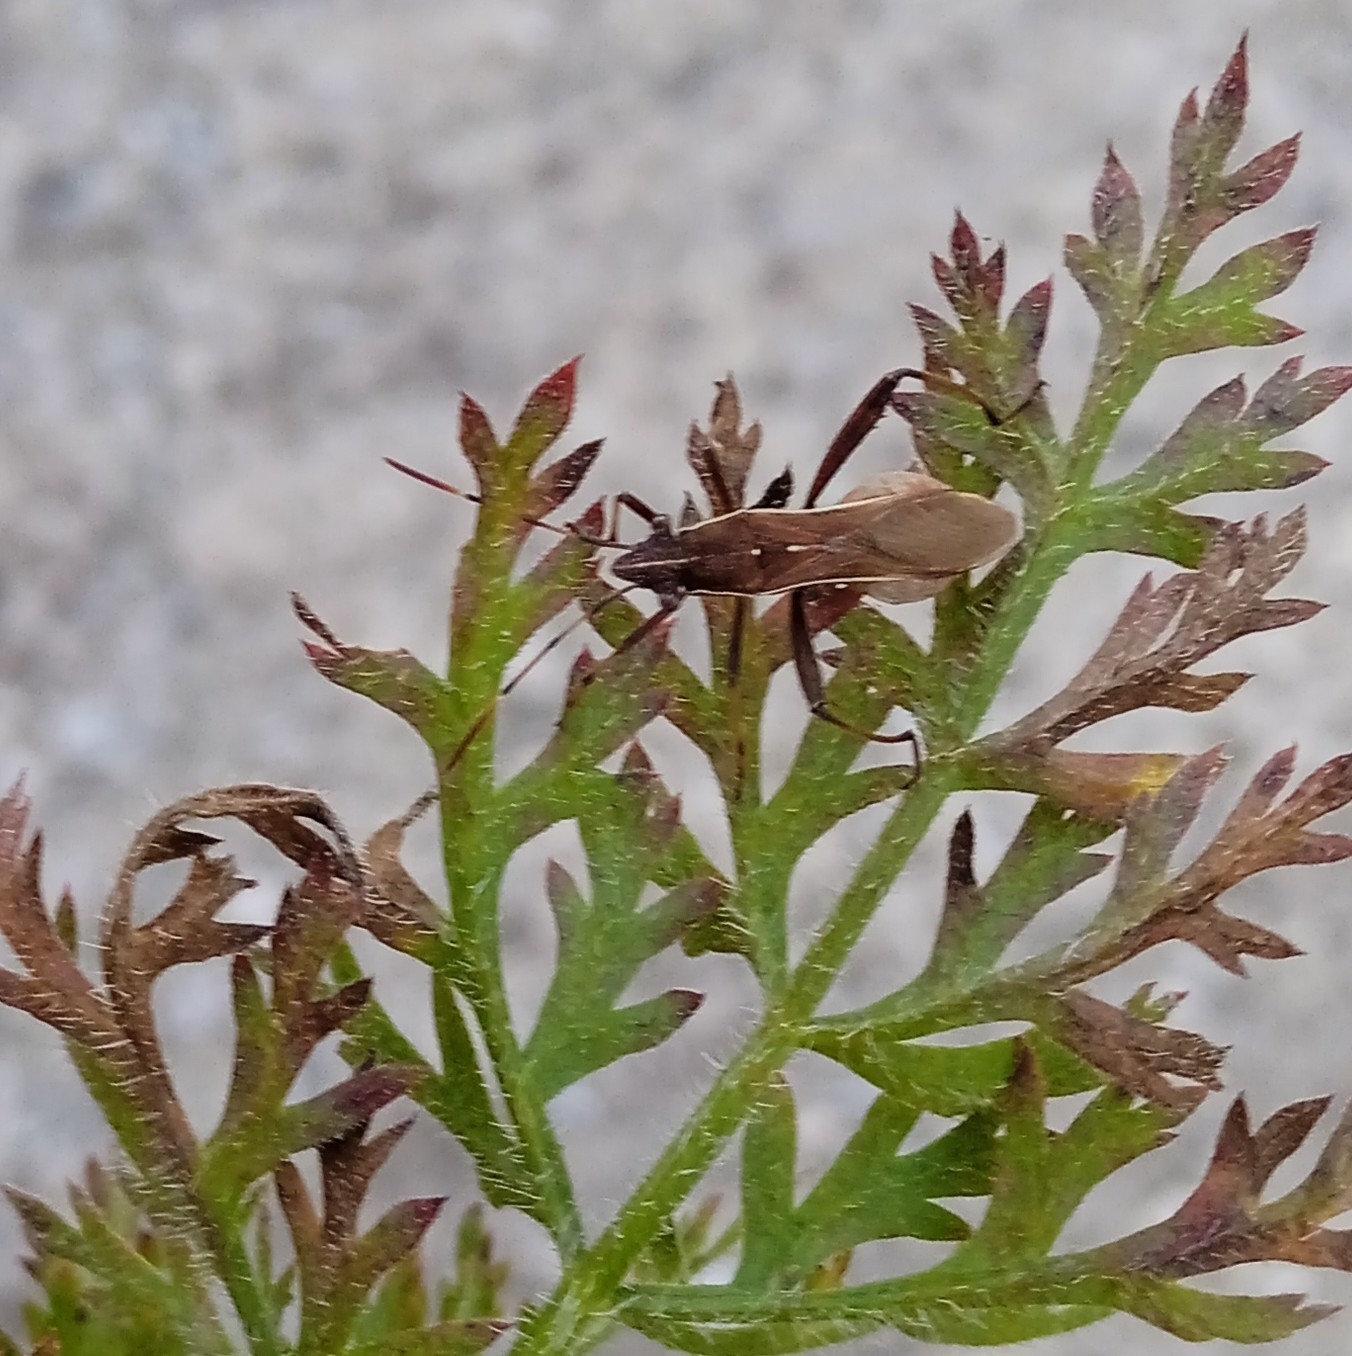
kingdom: Animalia
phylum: Arthropoda
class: Insecta
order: Hemiptera
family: Alydidae
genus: Camptopus
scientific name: Camptopus lateralis
